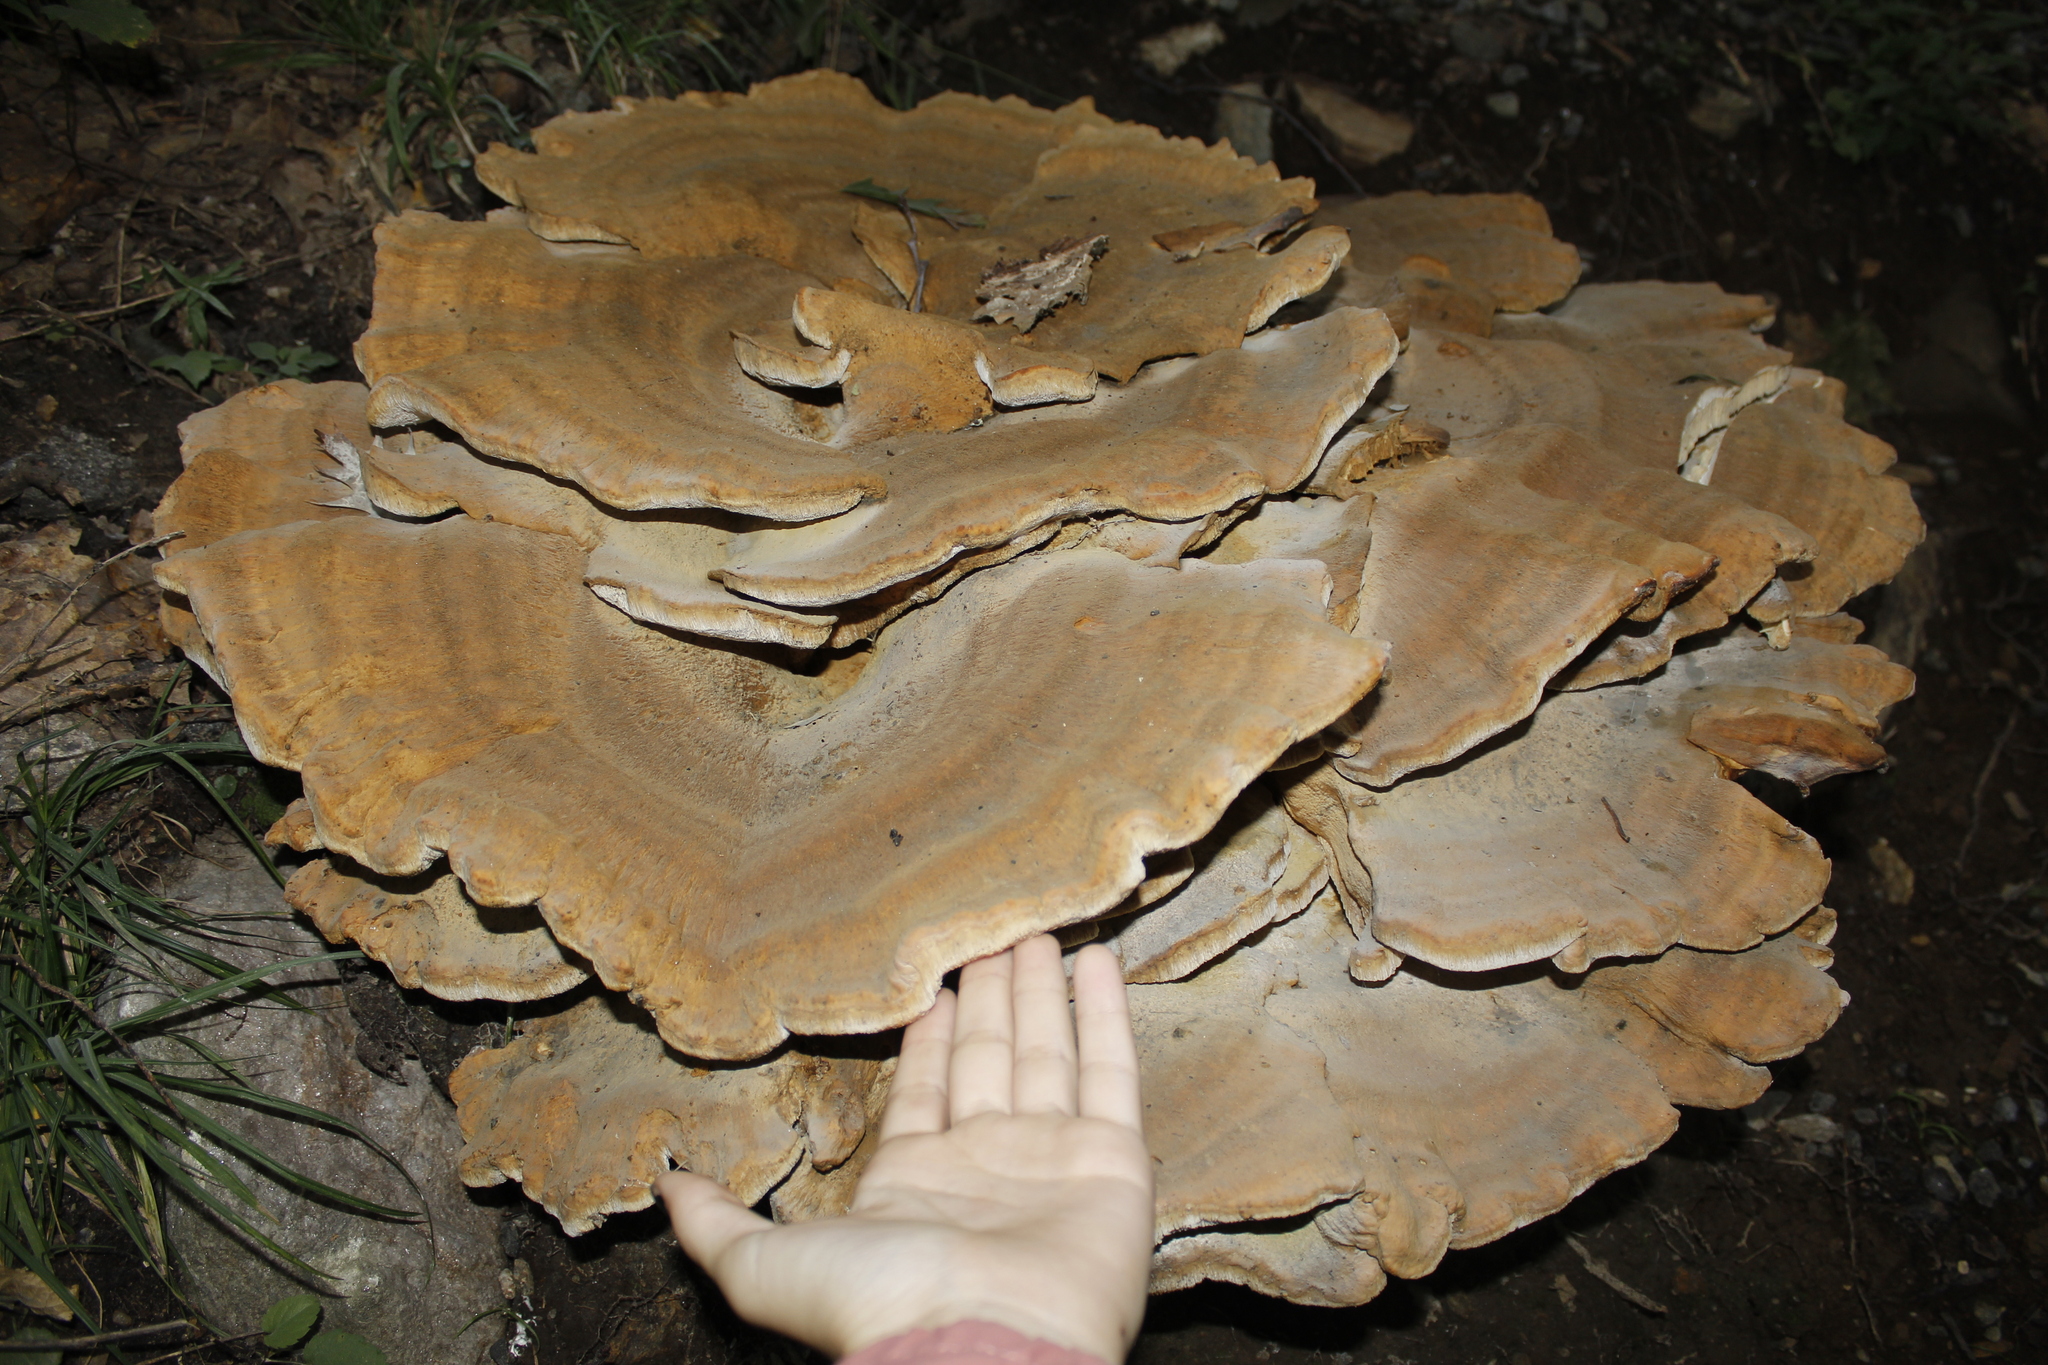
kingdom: Fungi
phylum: Basidiomycota
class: Agaricomycetes
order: Russulales
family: Bondarzewiaceae
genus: Bondarzewia
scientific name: Bondarzewia berkeleyi
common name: Berkeley's polypore
